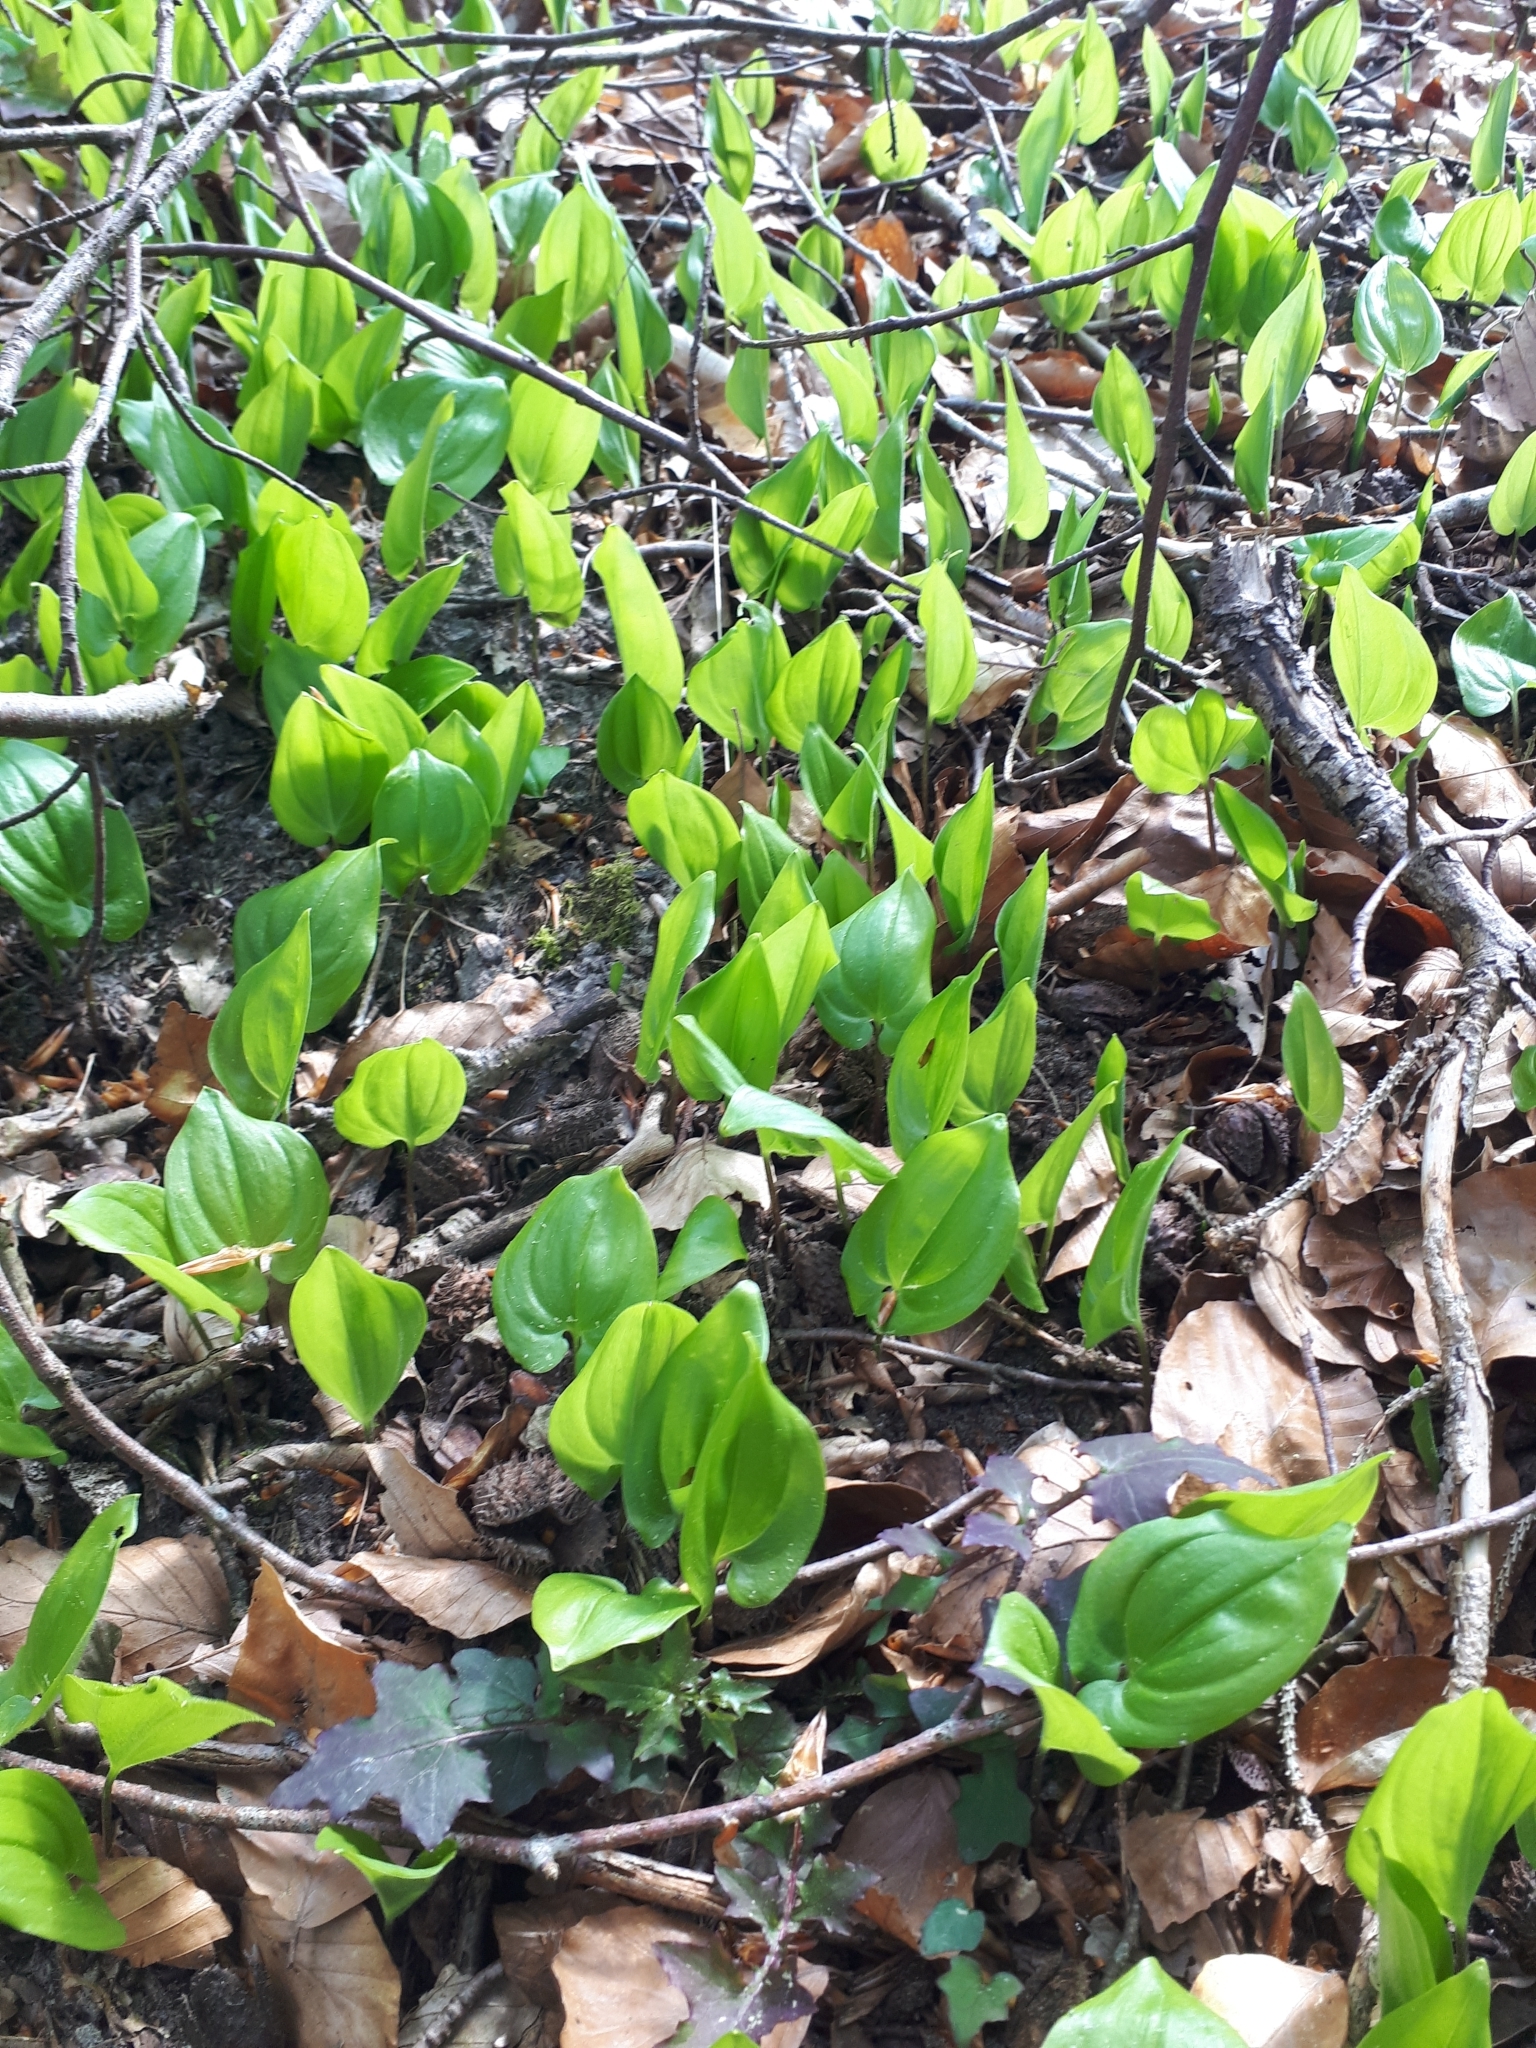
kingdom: Plantae
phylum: Tracheophyta
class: Liliopsida
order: Asparagales
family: Asparagaceae
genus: Maianthemum
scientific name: Maianthemum bifolium
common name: May lily
